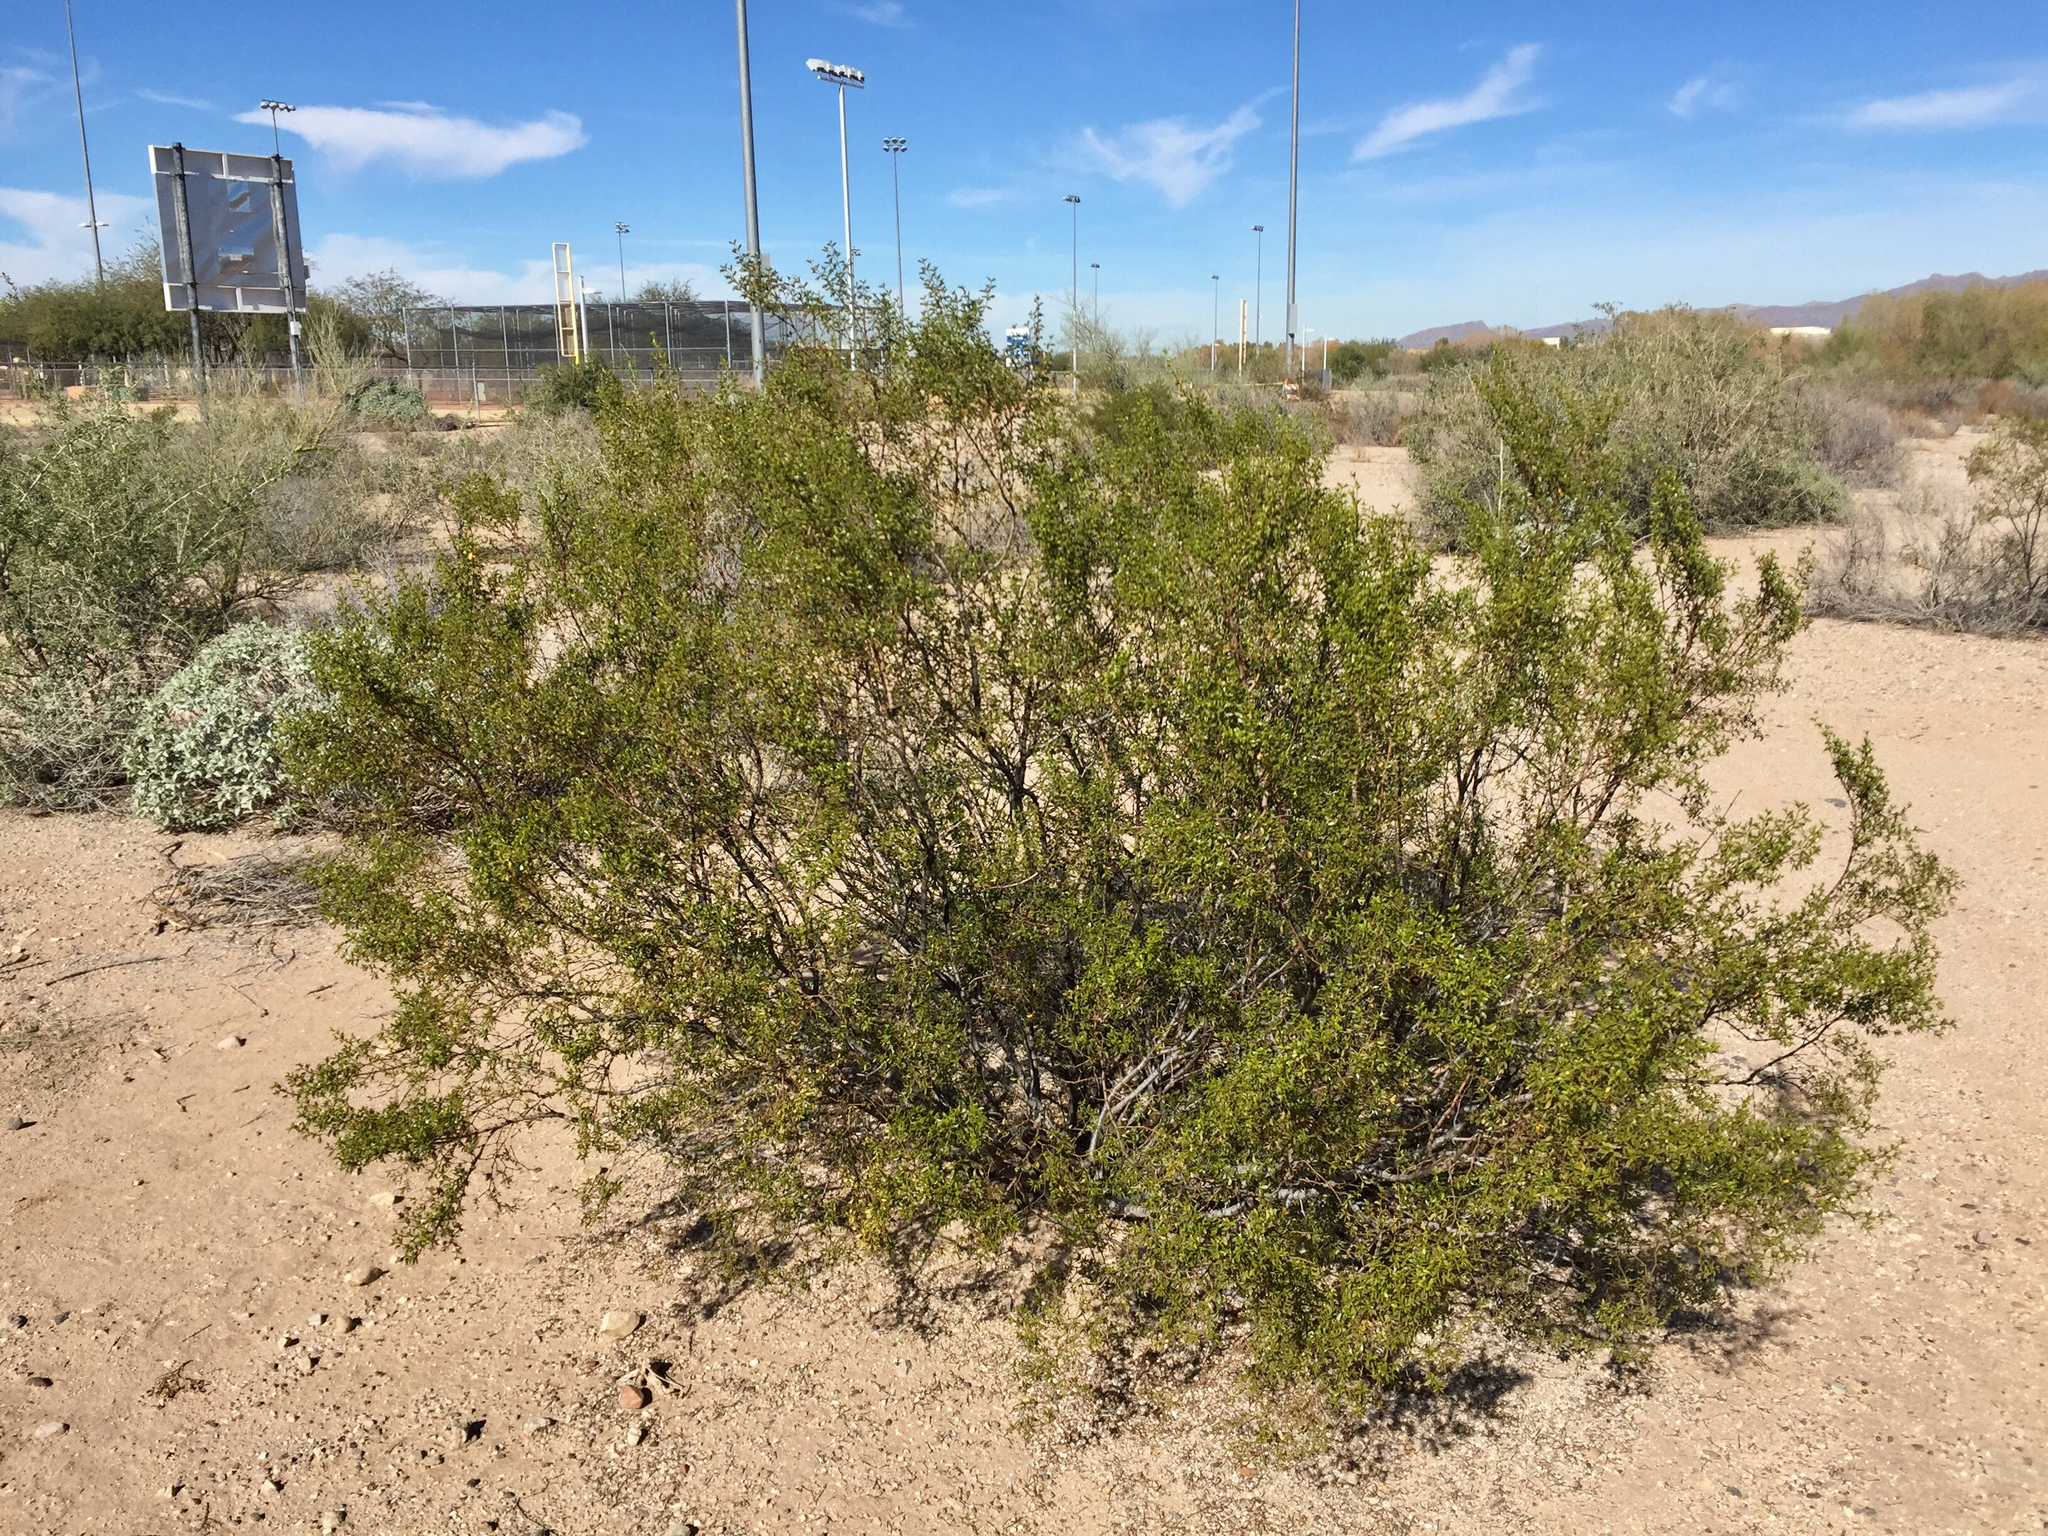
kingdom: Plantae
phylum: Tracheophyta
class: Magnoliopsida
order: Zygophyllales
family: Zygophyllaceae
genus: Larrea
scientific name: Larrea tridentata
